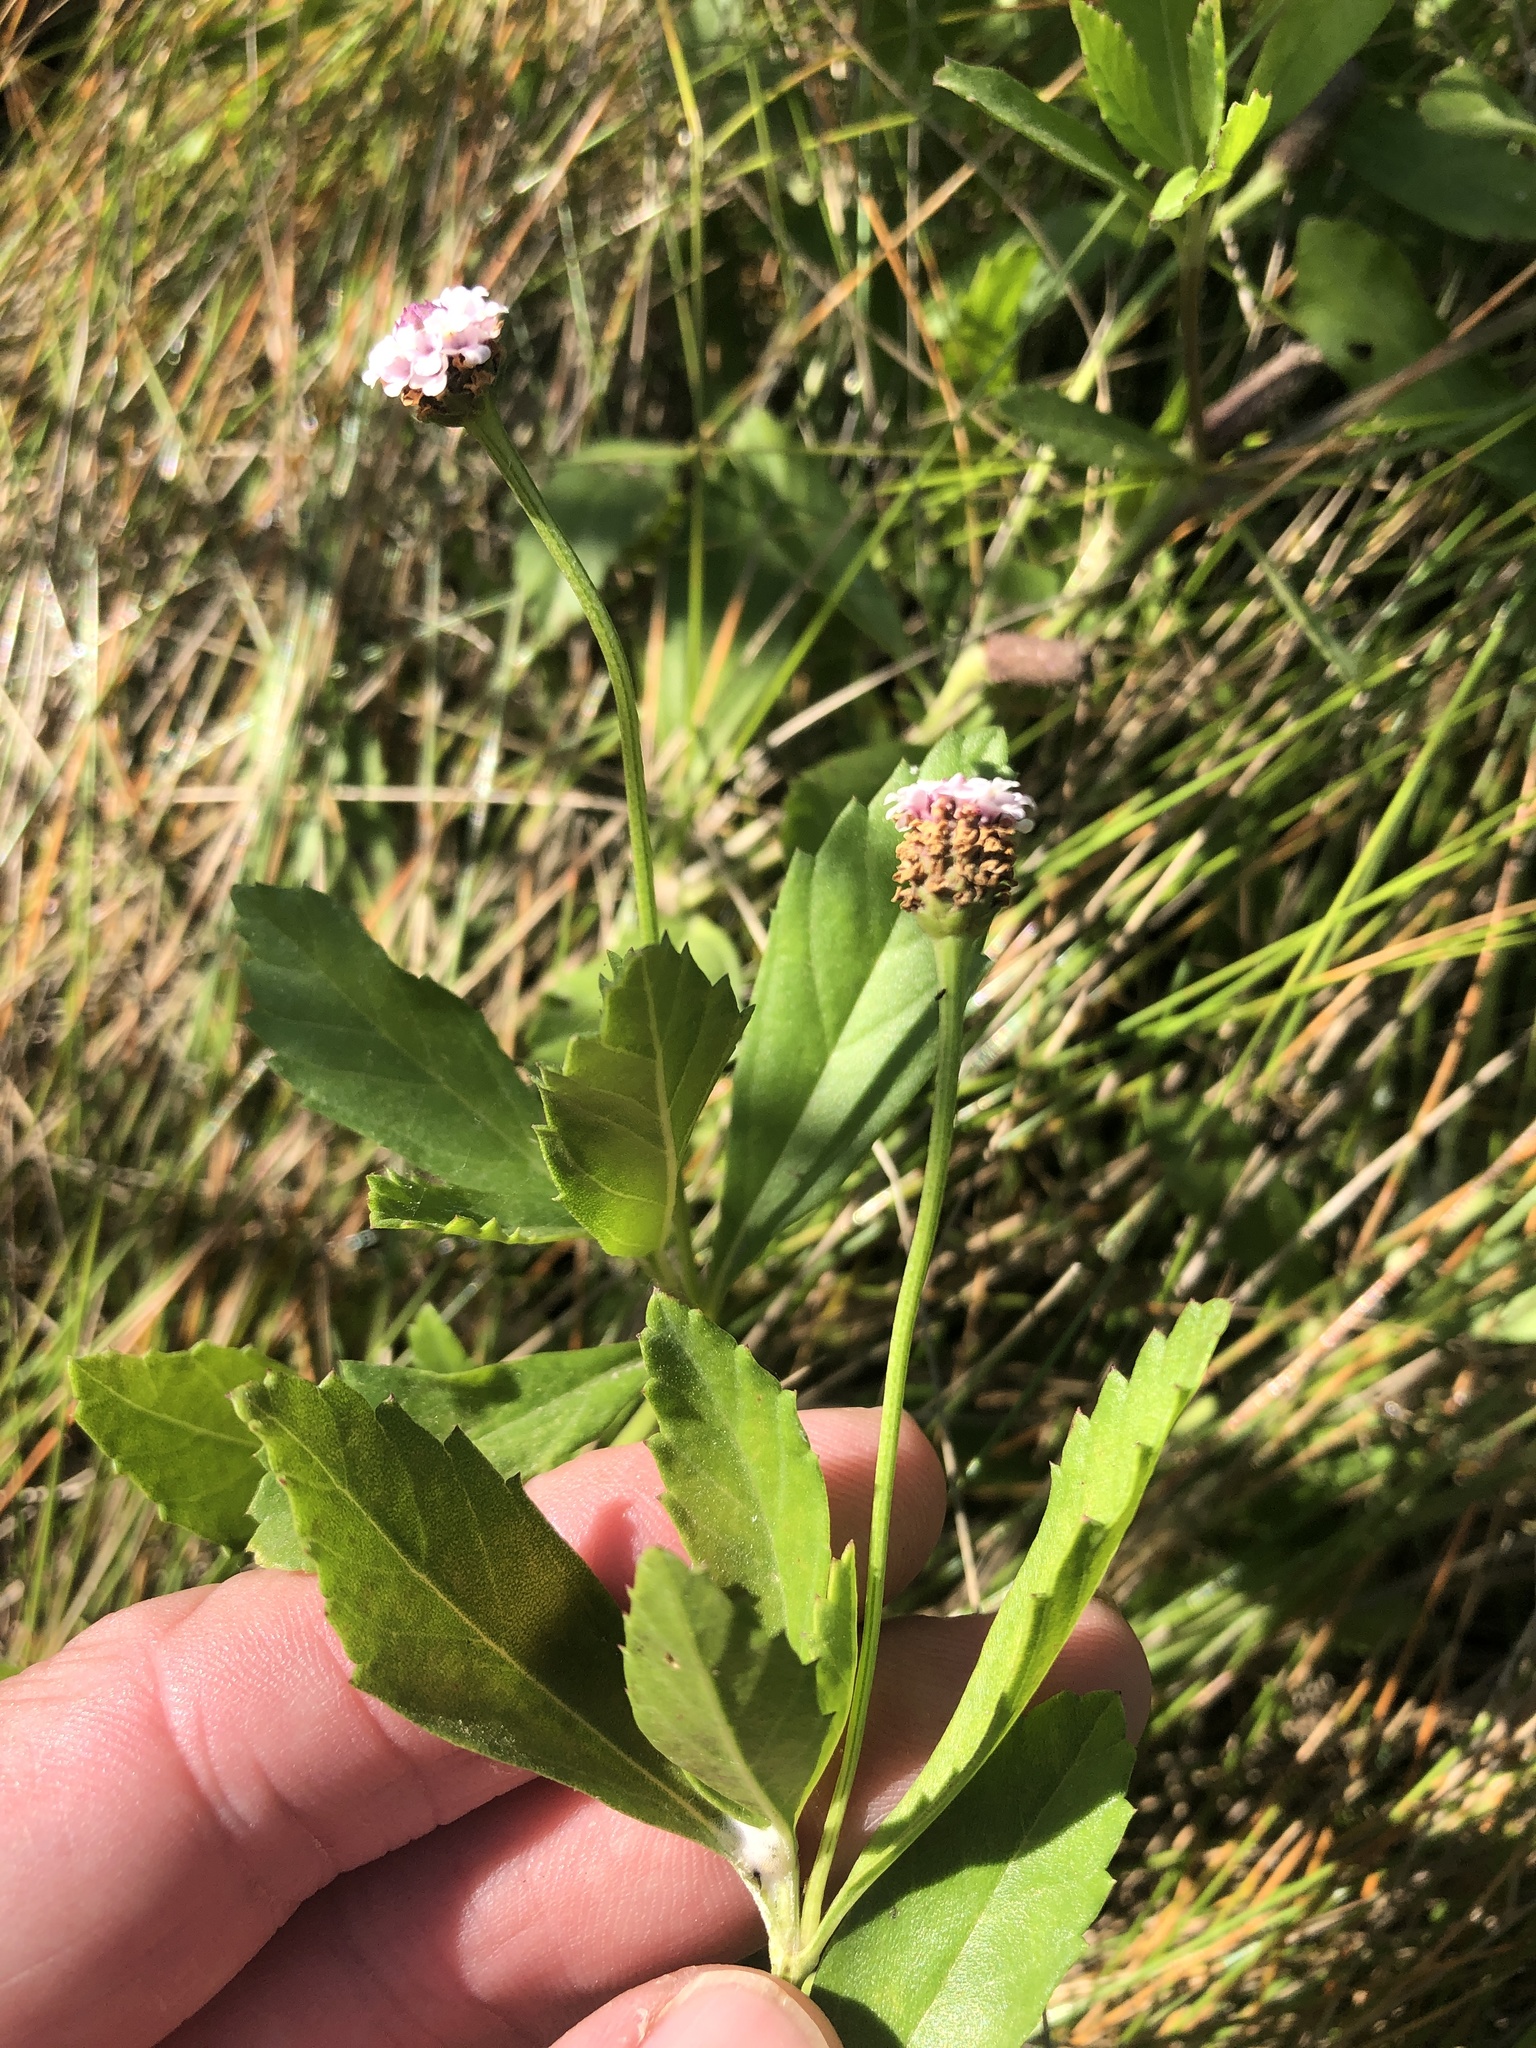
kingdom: Plantae
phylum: Tracheophyta
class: Magnoliopsida
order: Lamiales
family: Verbenaceae
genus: Phyla
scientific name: Phyla lanceolata
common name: Northern fogfruit
